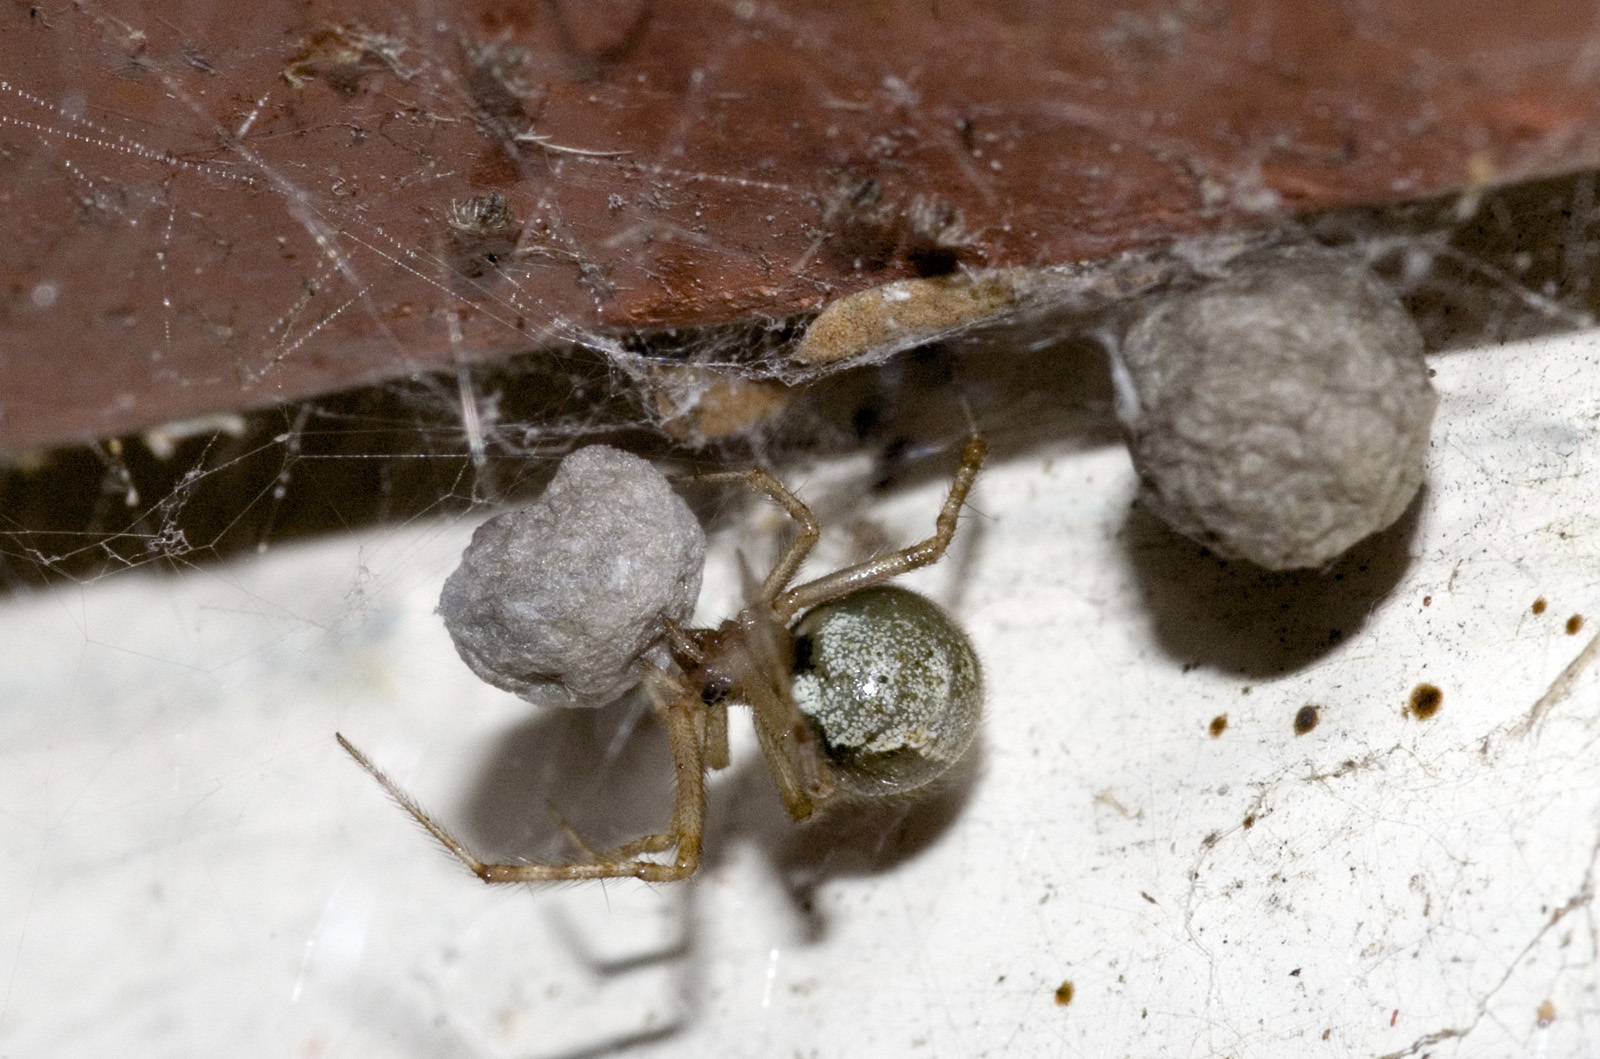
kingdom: Animalia
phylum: Arthropoda
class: Arachnida
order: Araneae
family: Theridiidae
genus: Cryptachaea
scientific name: Cryptachaea veruculata
